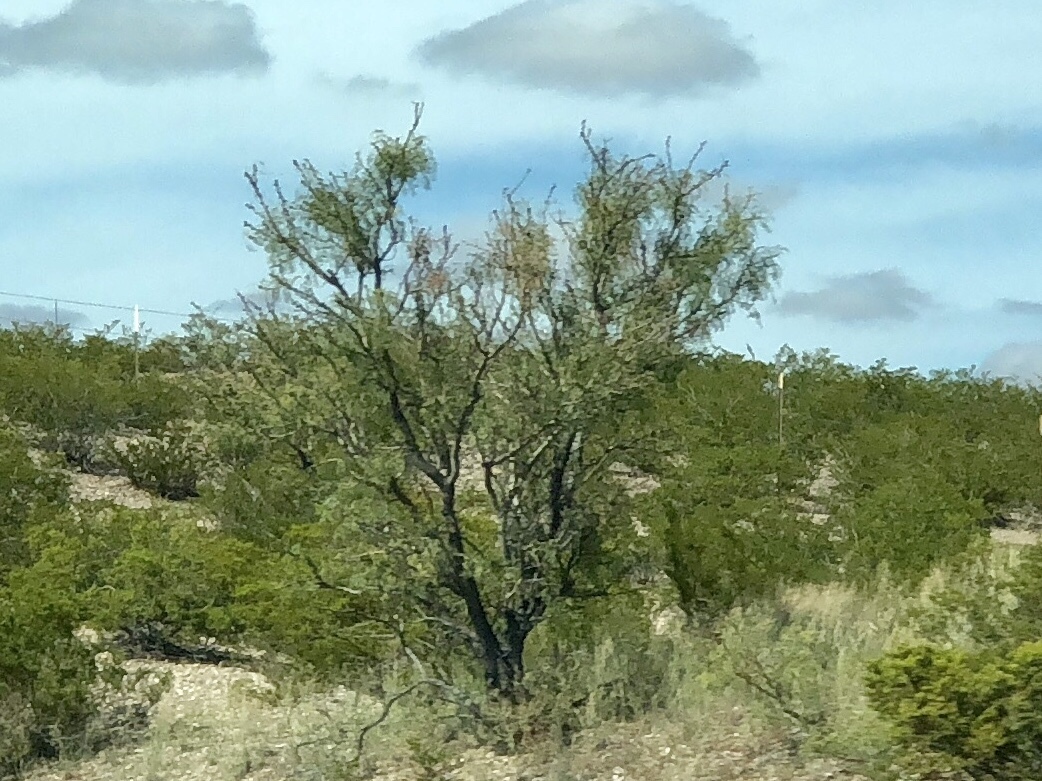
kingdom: Plantae
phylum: Tracheophyta
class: Magnoliopsida
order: Fabales
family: Fabaceae
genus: Prosopis
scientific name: Prosopis glandulosa
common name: Honey mesquite
